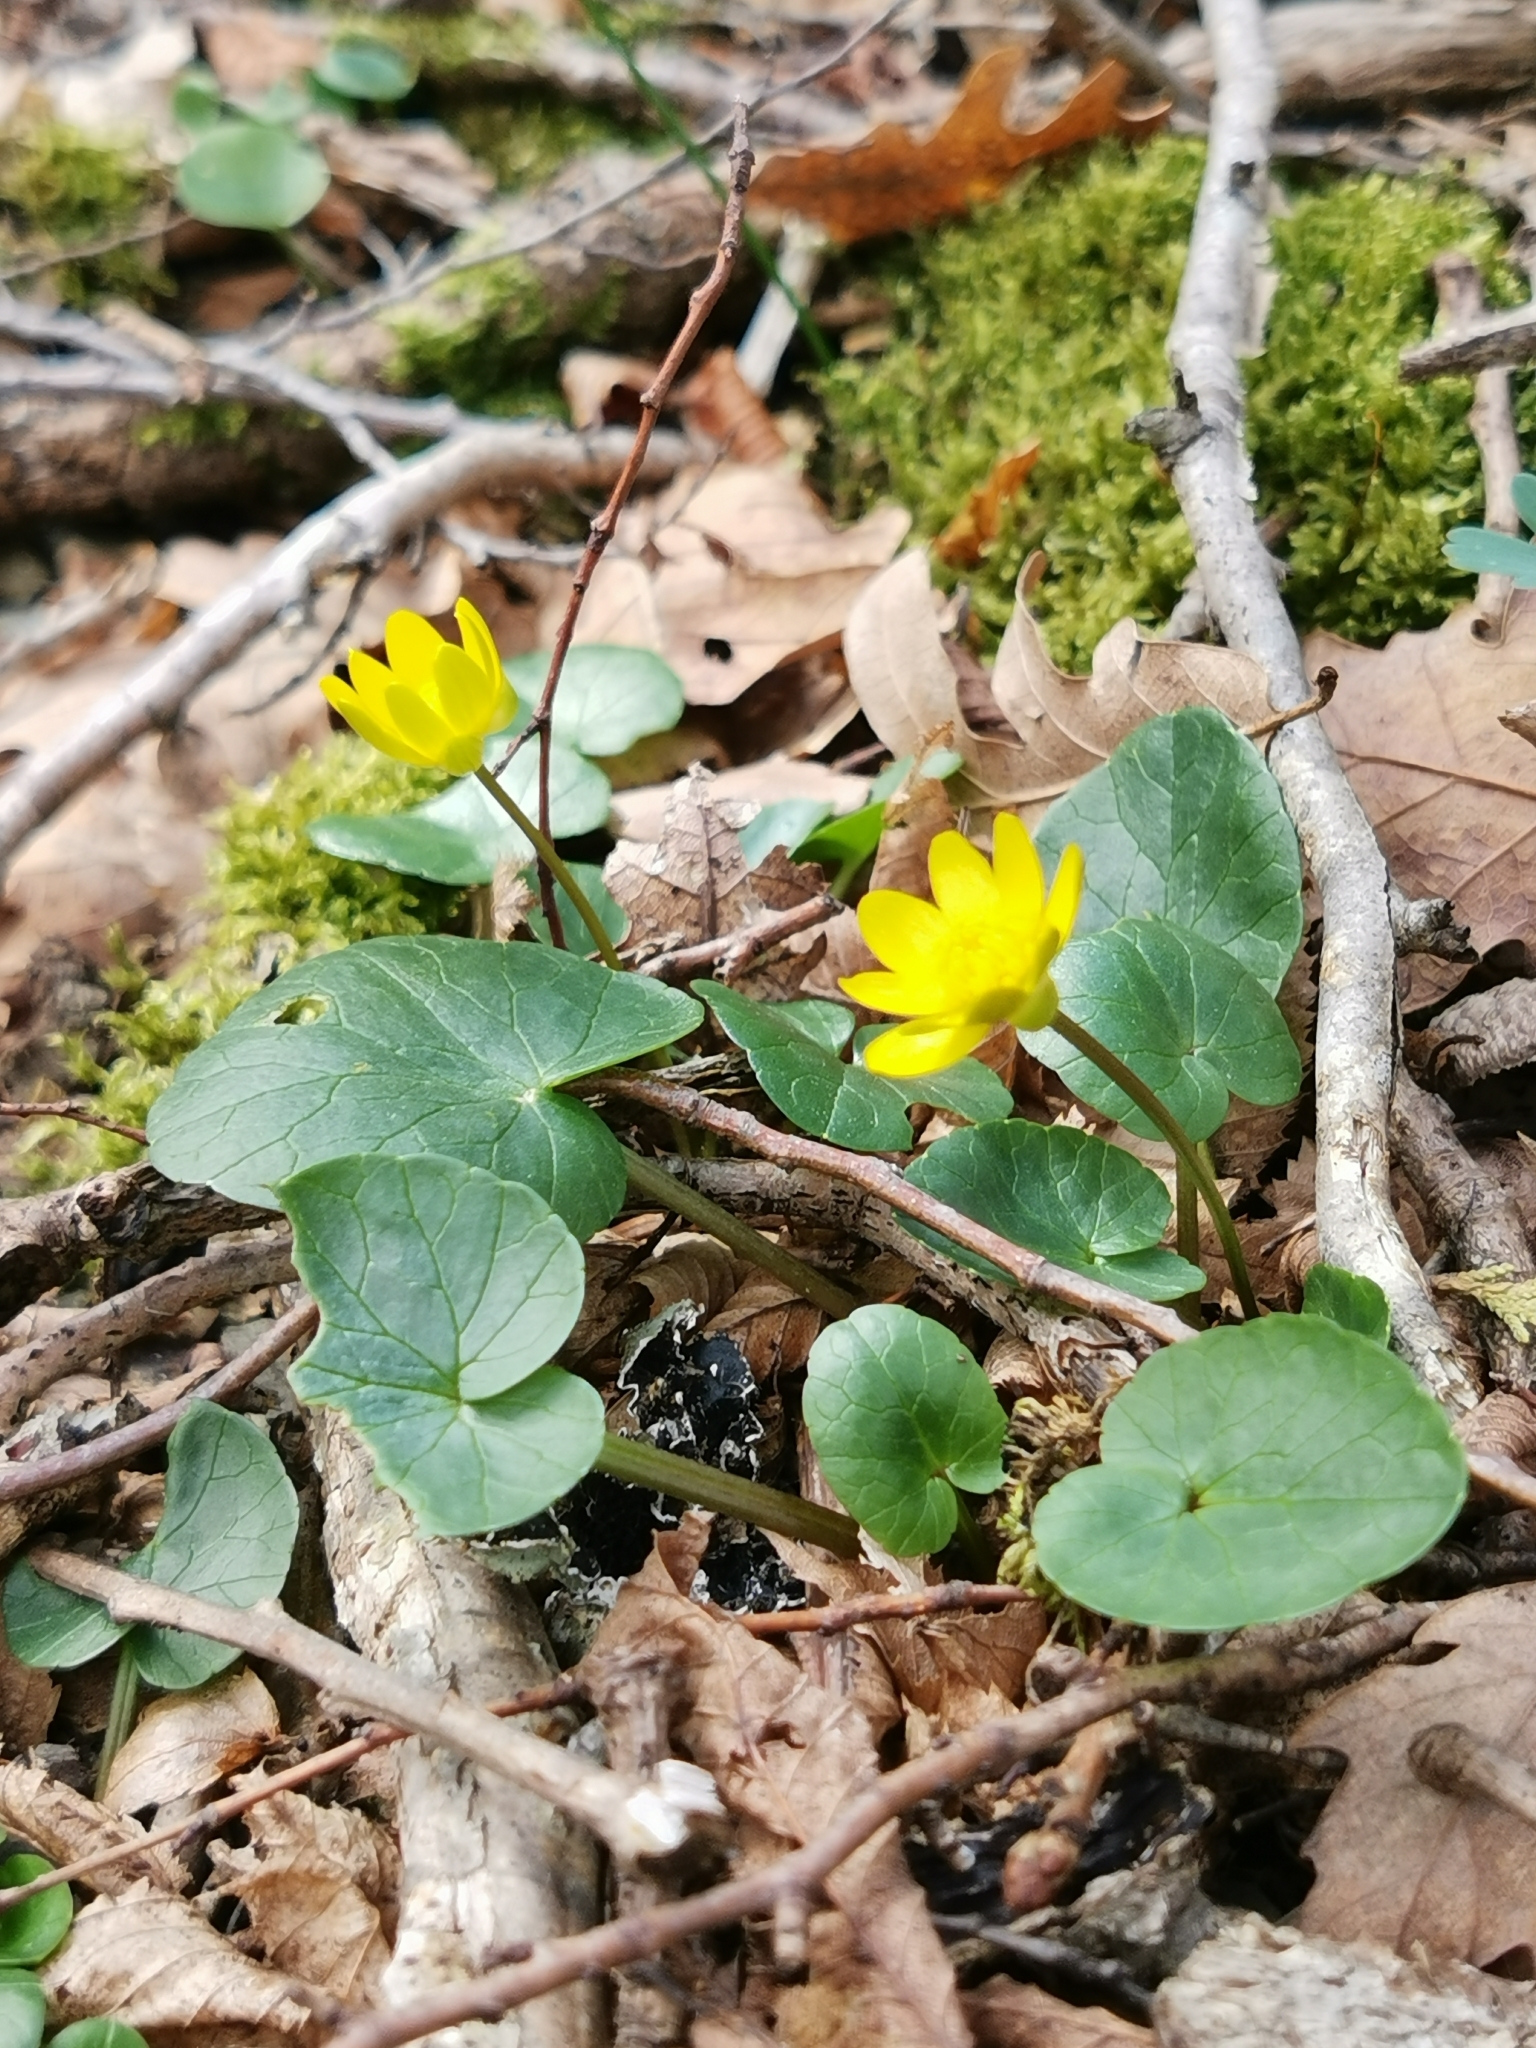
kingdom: Plantae
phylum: Tracheophyta
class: Magnoliopsida
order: Ranunculales
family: Ranunculaceae
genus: Ficaria
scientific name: Ficaria verna
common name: Lesser celandine
